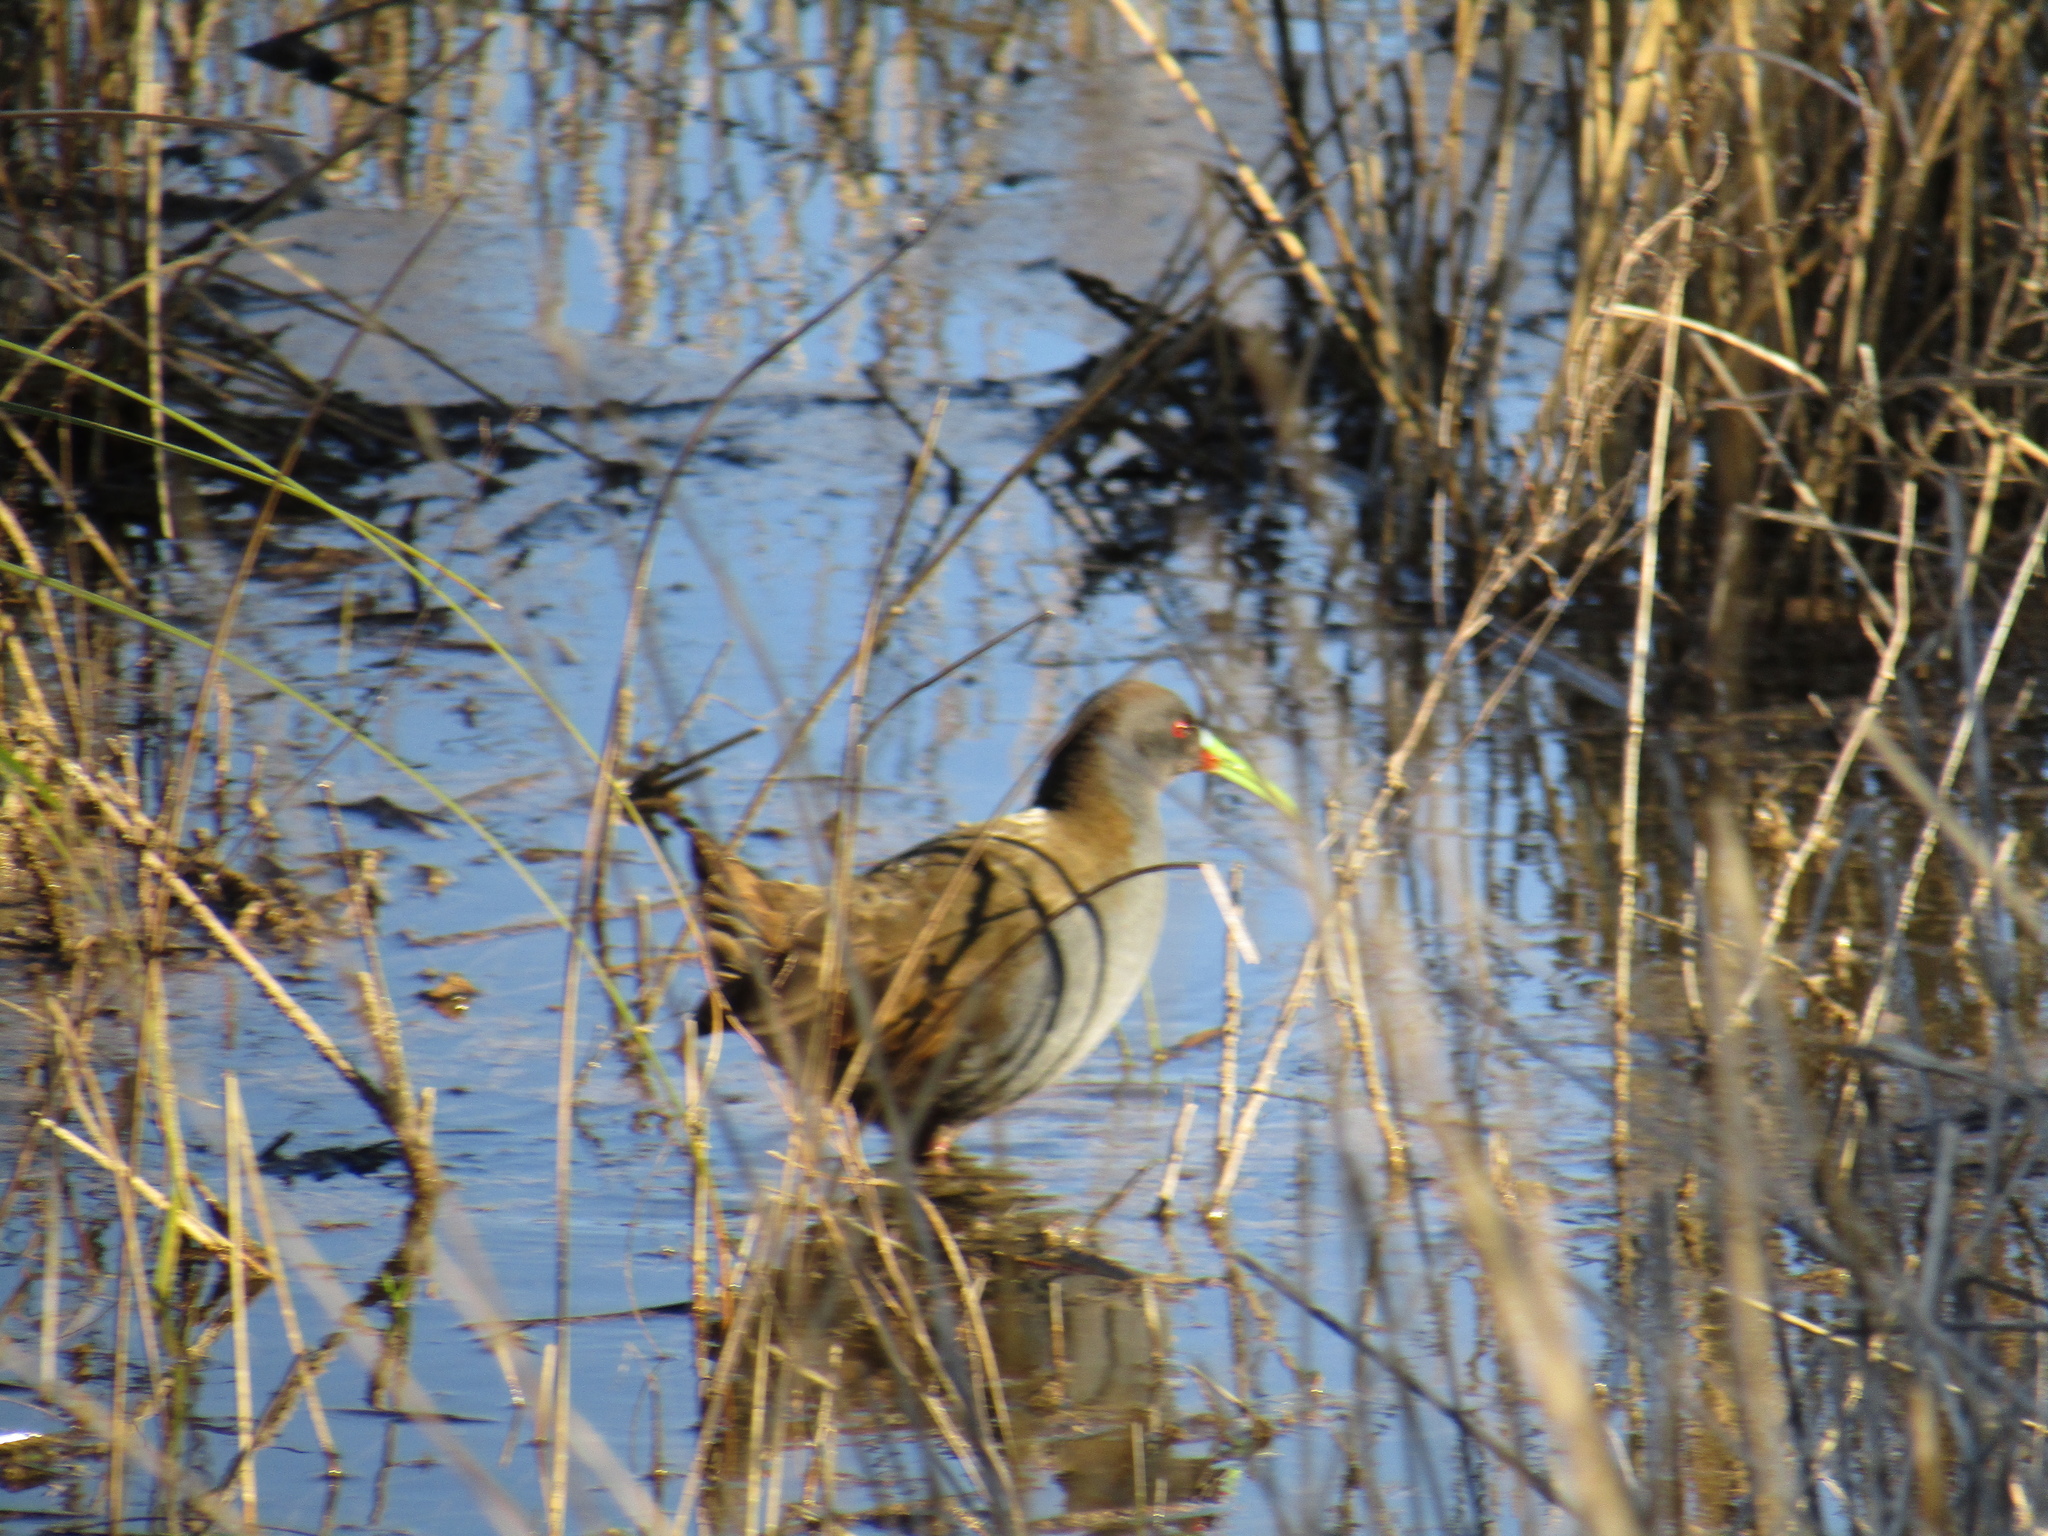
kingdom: Animalia
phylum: Chordata
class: Aves
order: Gruiformes
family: Rallidae
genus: Pardirallus
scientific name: Pardirallus sanguinolentus
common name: Plumbeous rail
